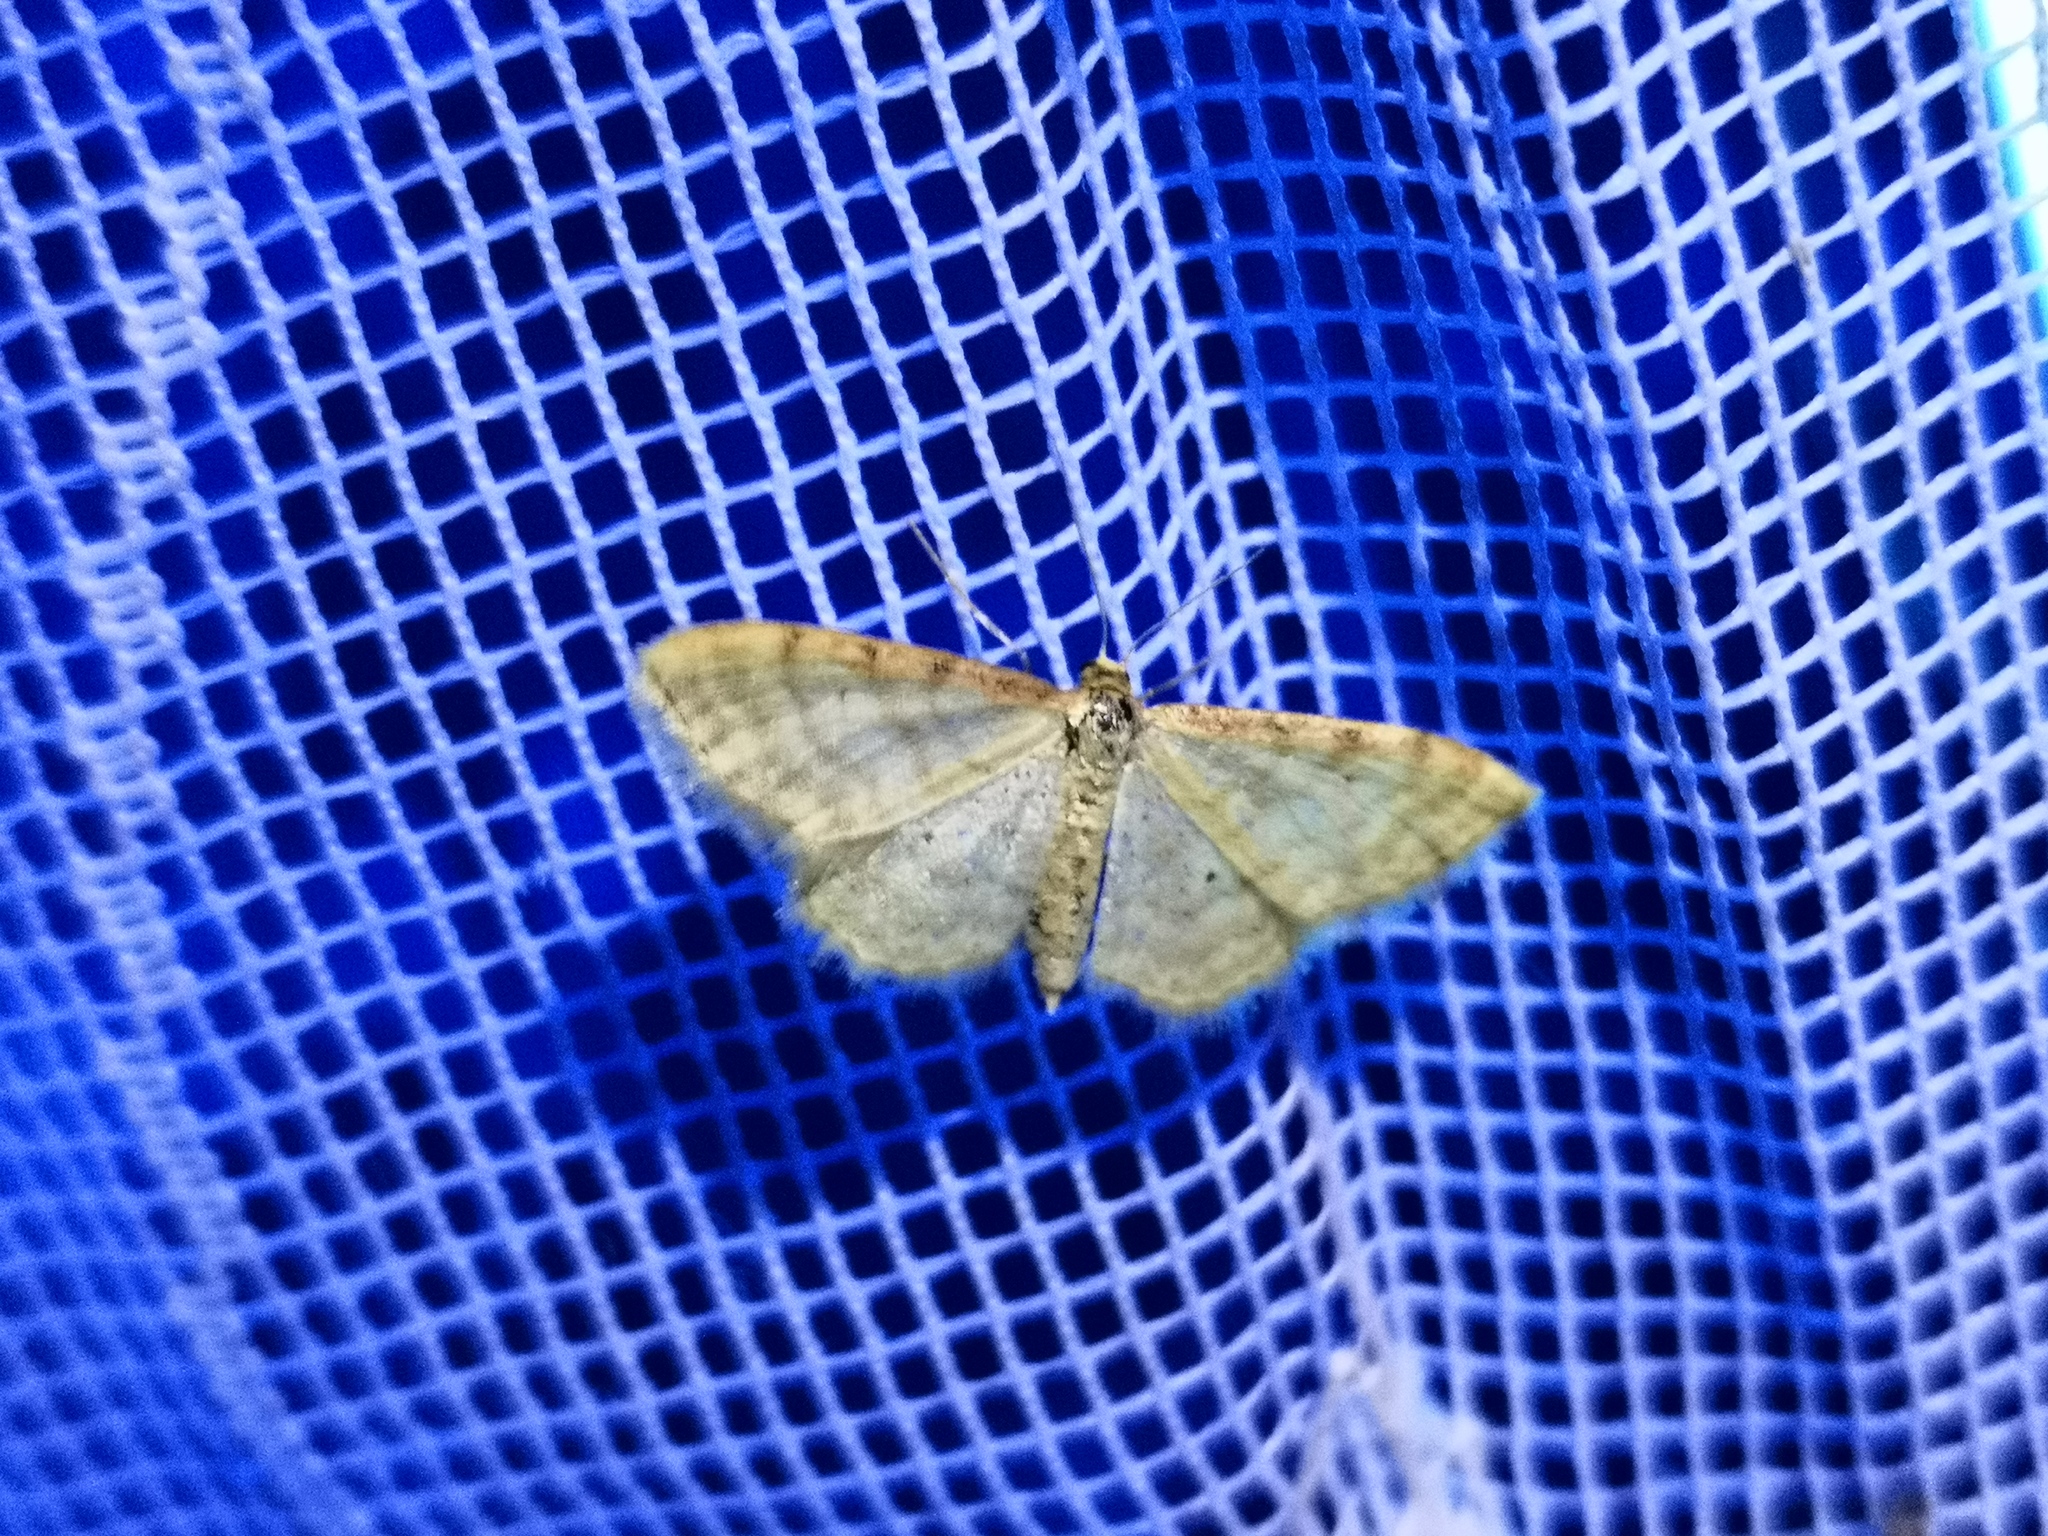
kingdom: Animalia
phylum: Arthropoda
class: Insecta
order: Lepidoptera
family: Geometridae
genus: Idaea
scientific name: Idaea humiliata
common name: Isle of wight wave
